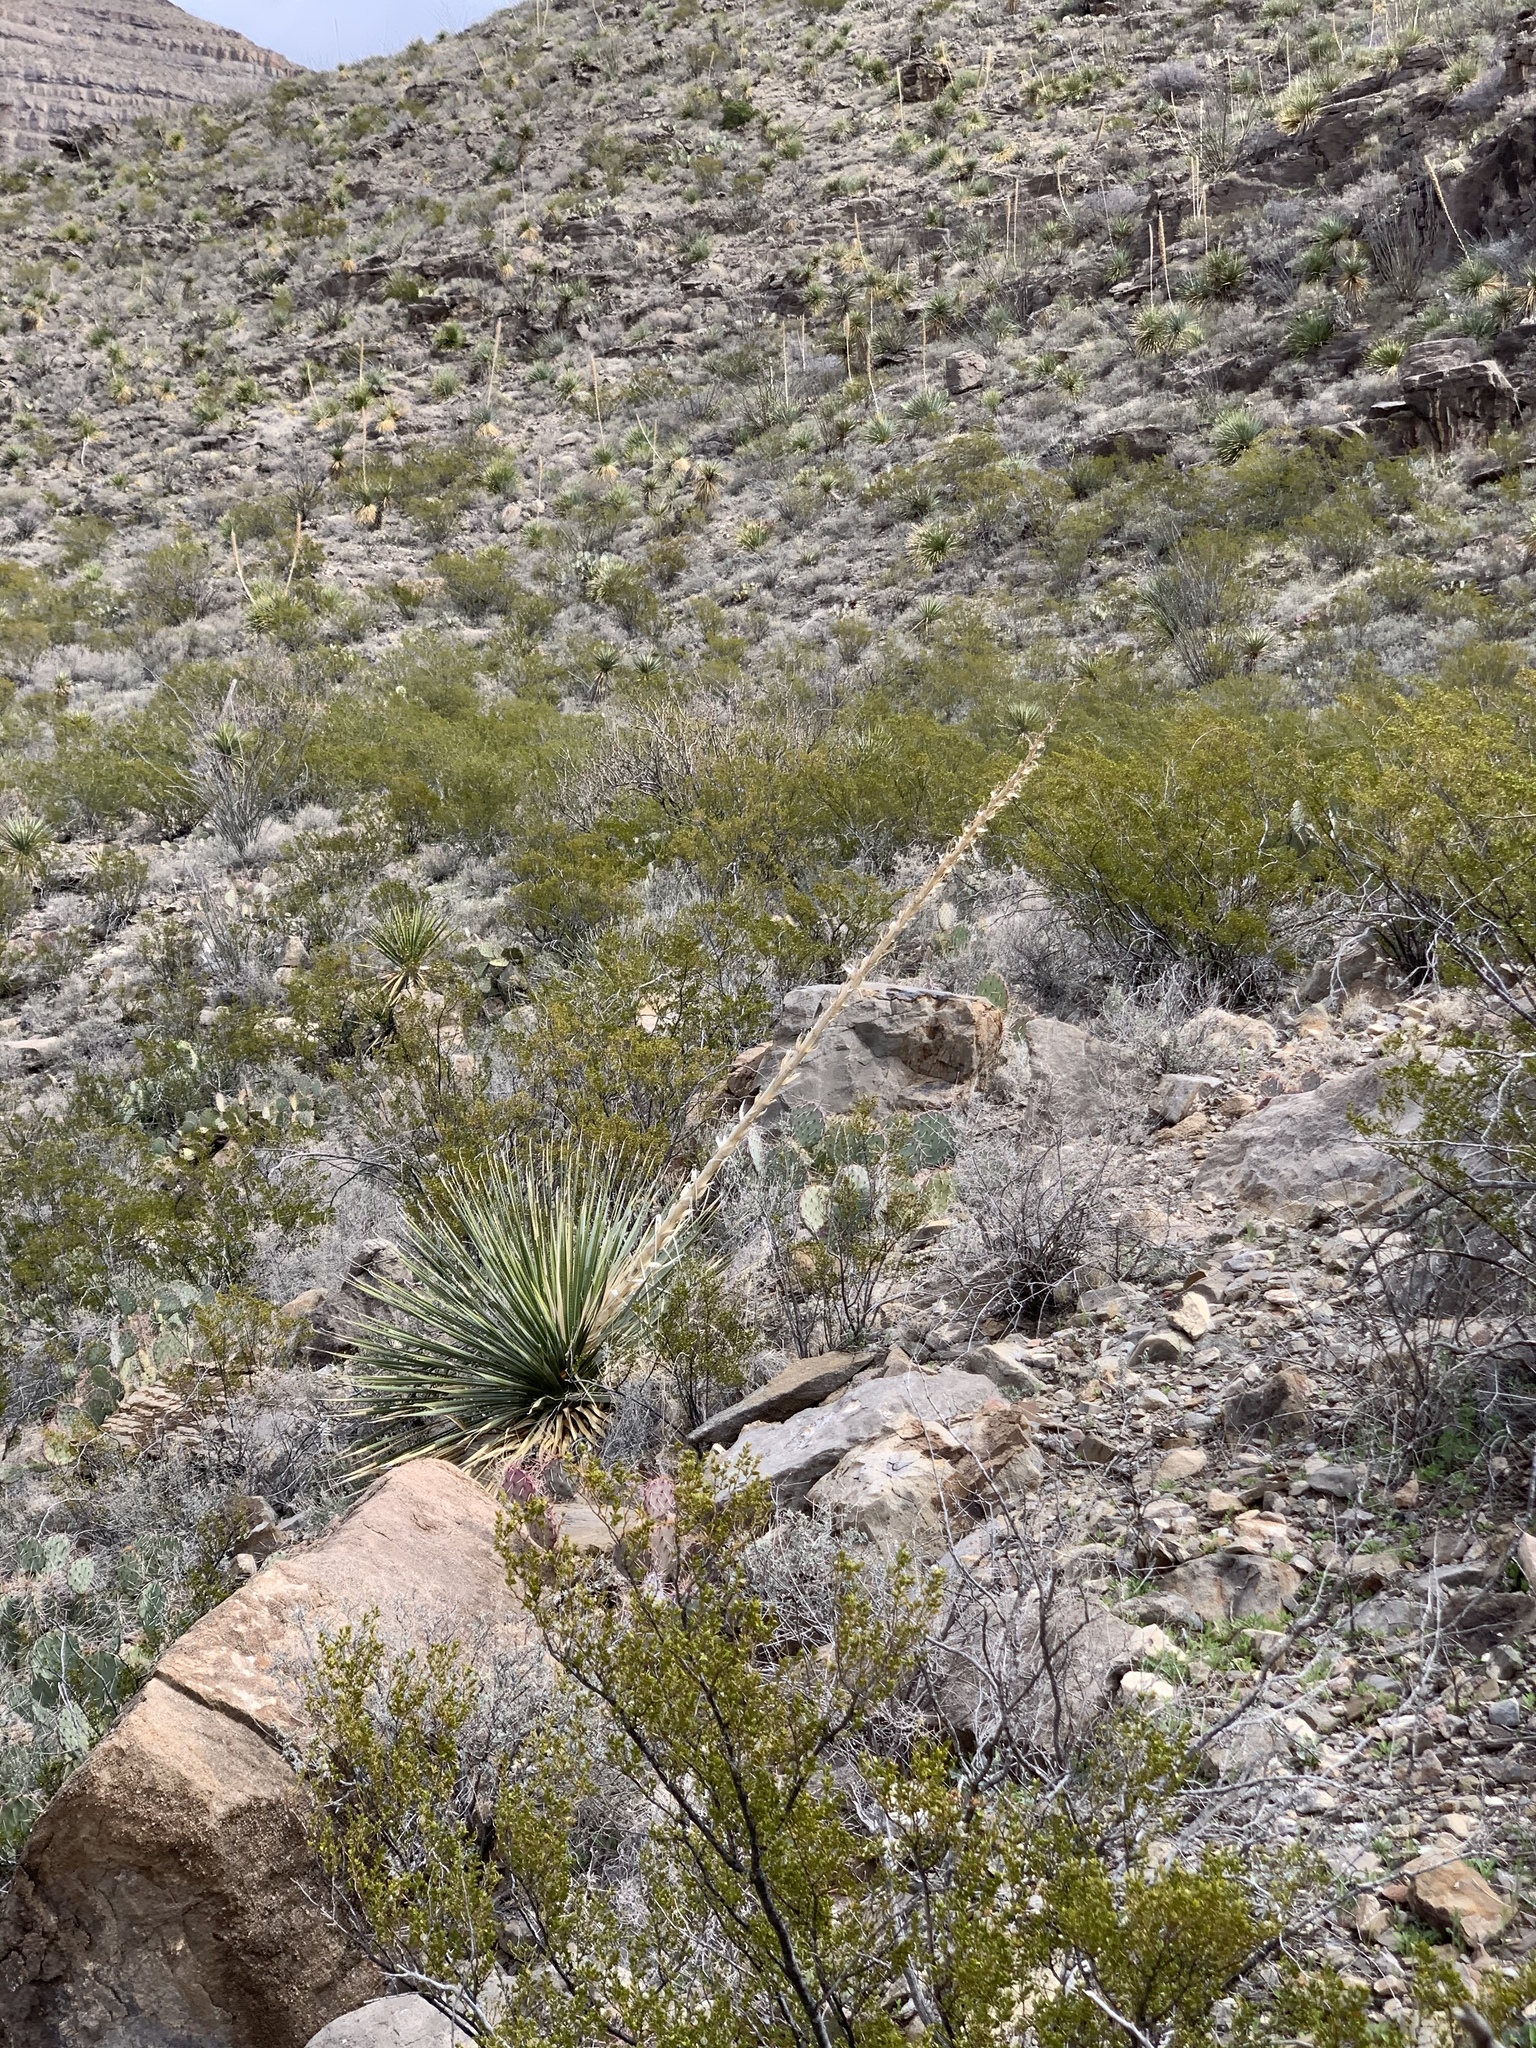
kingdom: Plantae
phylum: Tracheophyta
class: Liliopsida
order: Asparagales
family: Asparagaceae
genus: Dasylirion
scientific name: Dasylirion wheeleri
